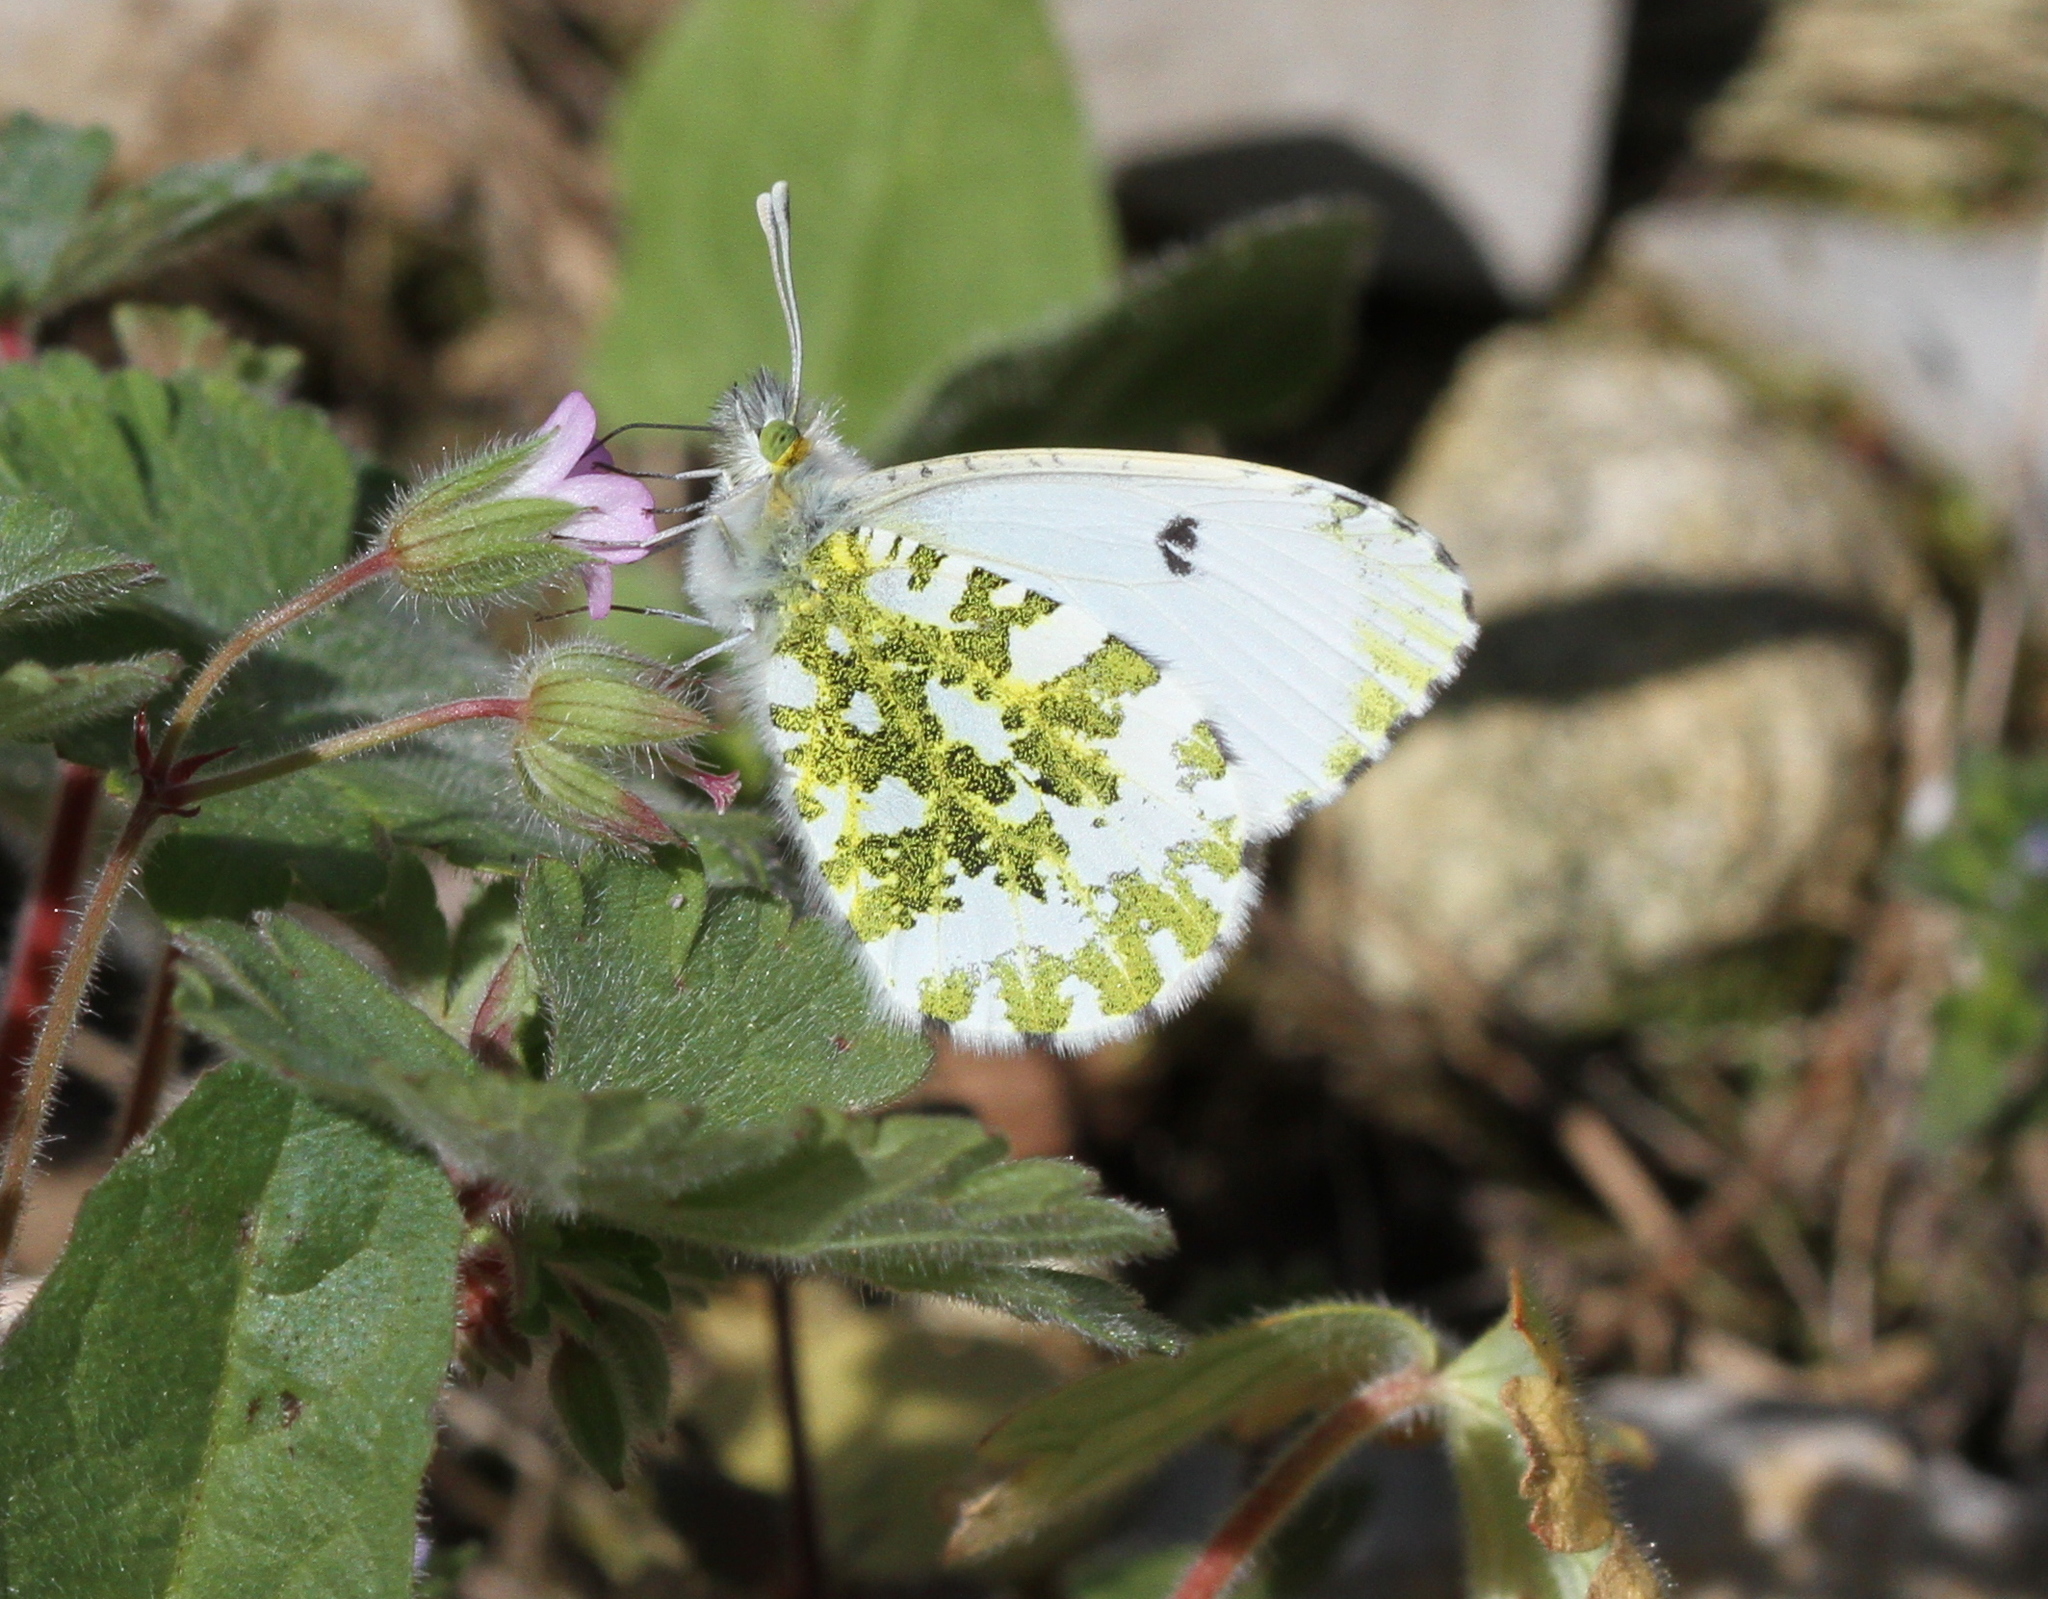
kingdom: Animalia
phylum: Arthropoda
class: Insecta
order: Lepidoptera
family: Pieridae
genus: Anthocharis
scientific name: Anthocharis cardamines
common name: Orange-tip
